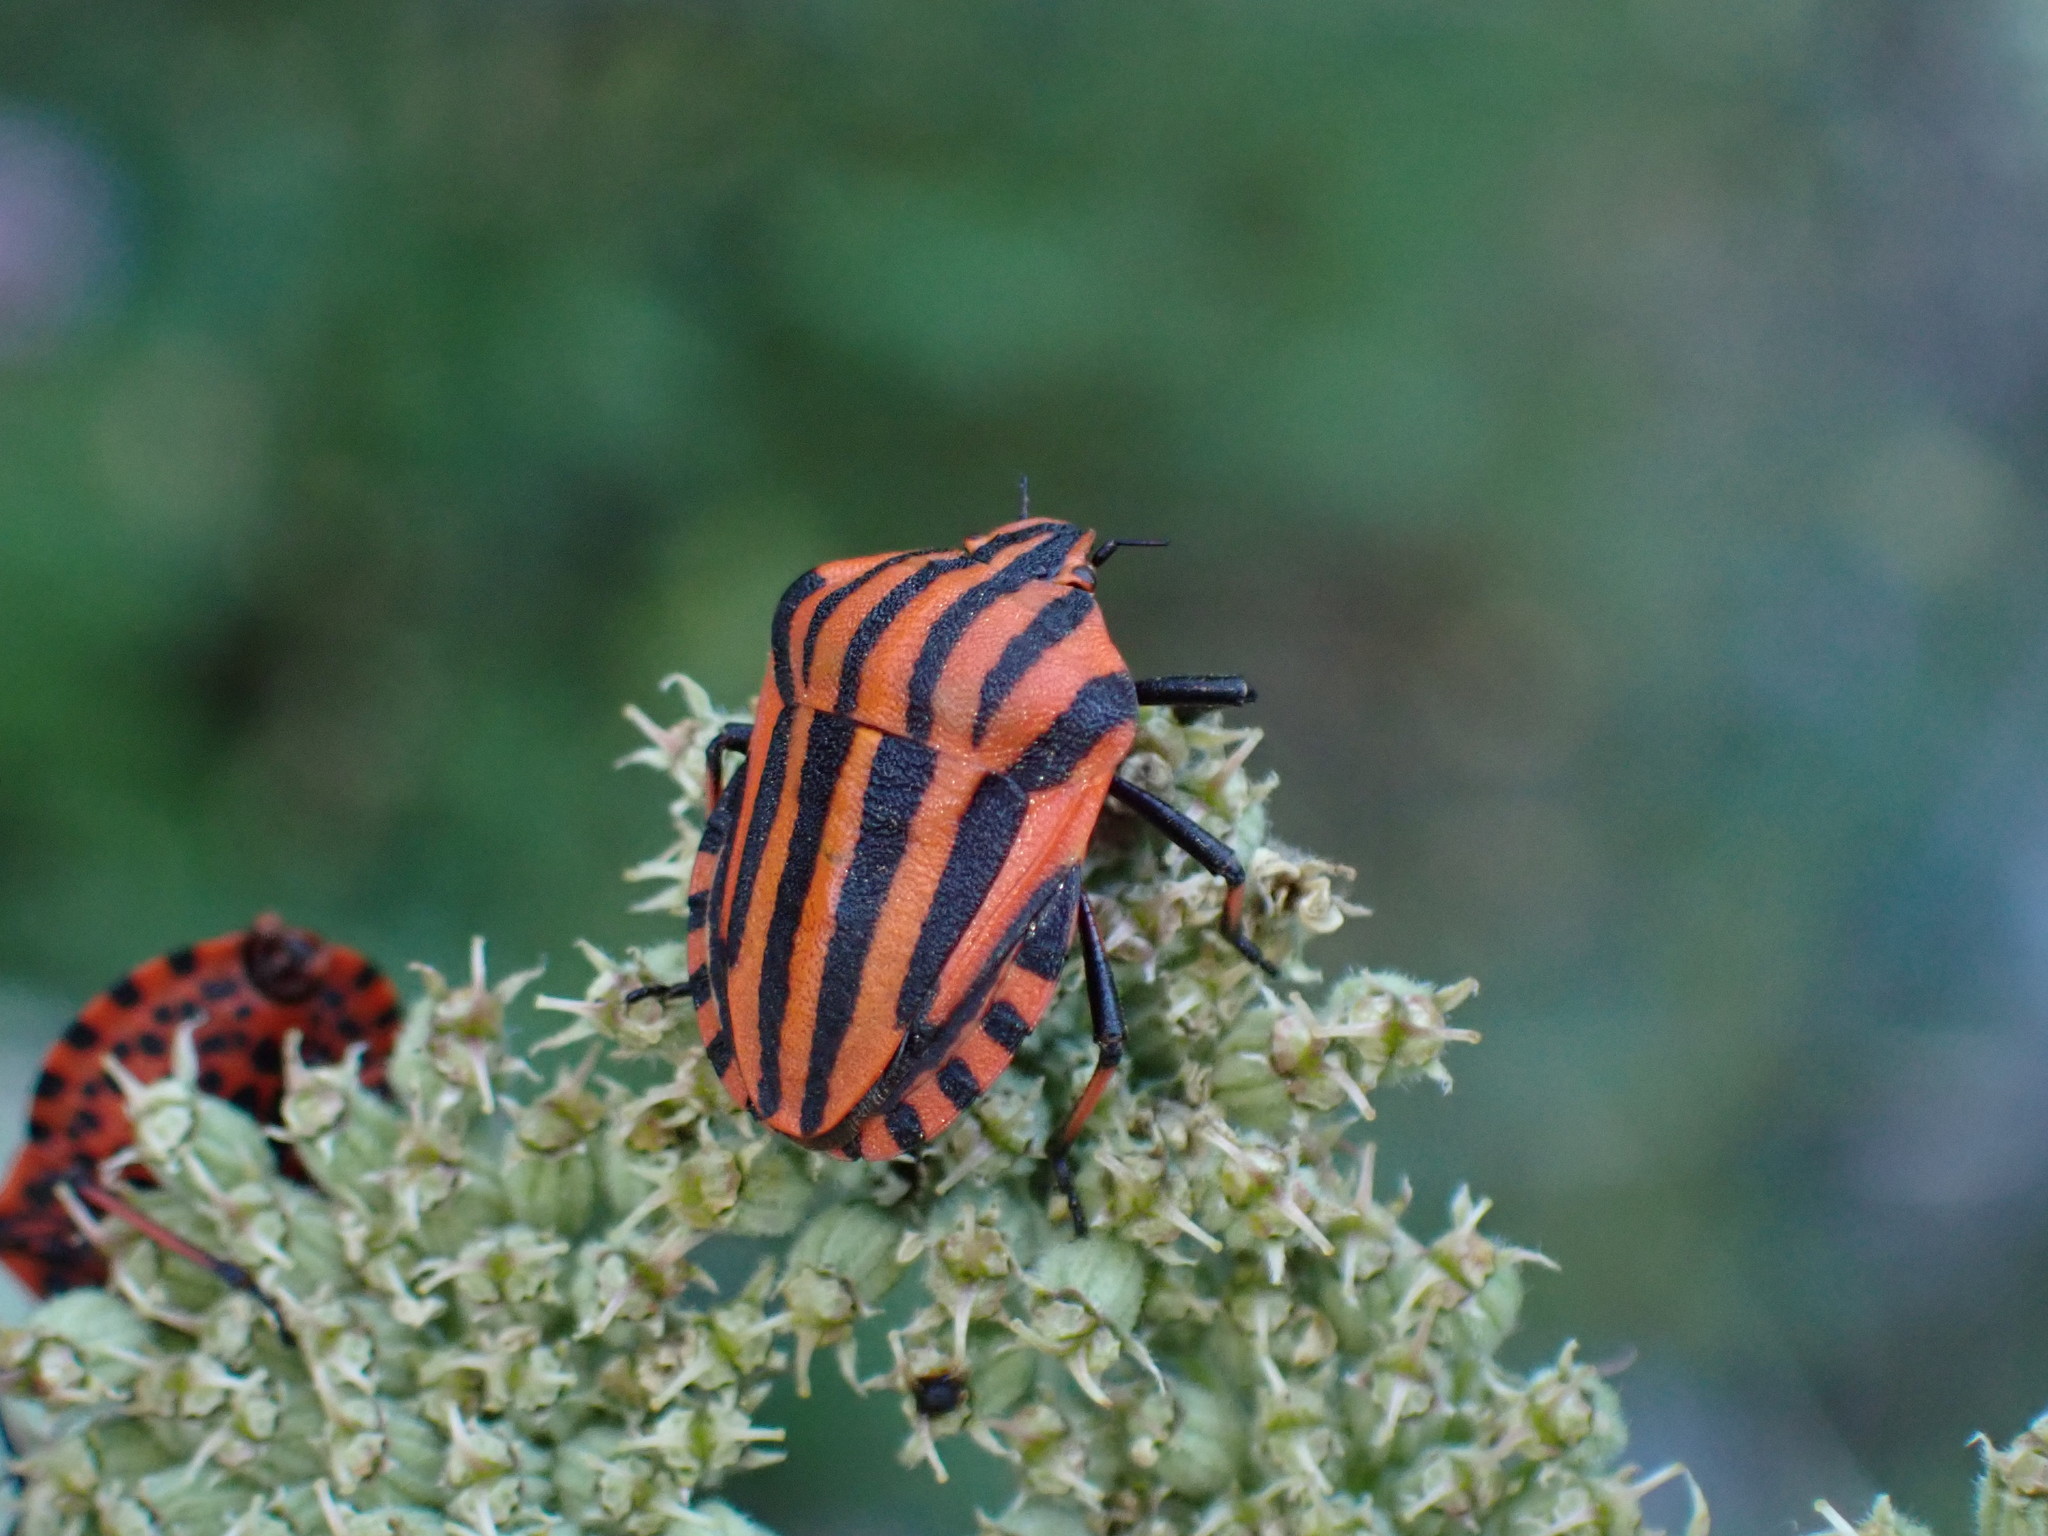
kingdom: Animalia
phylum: Arthropoda
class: Insecta
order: Hemiptera
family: Pentatomidae
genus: Graphosoma
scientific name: Graphosoma italicum
